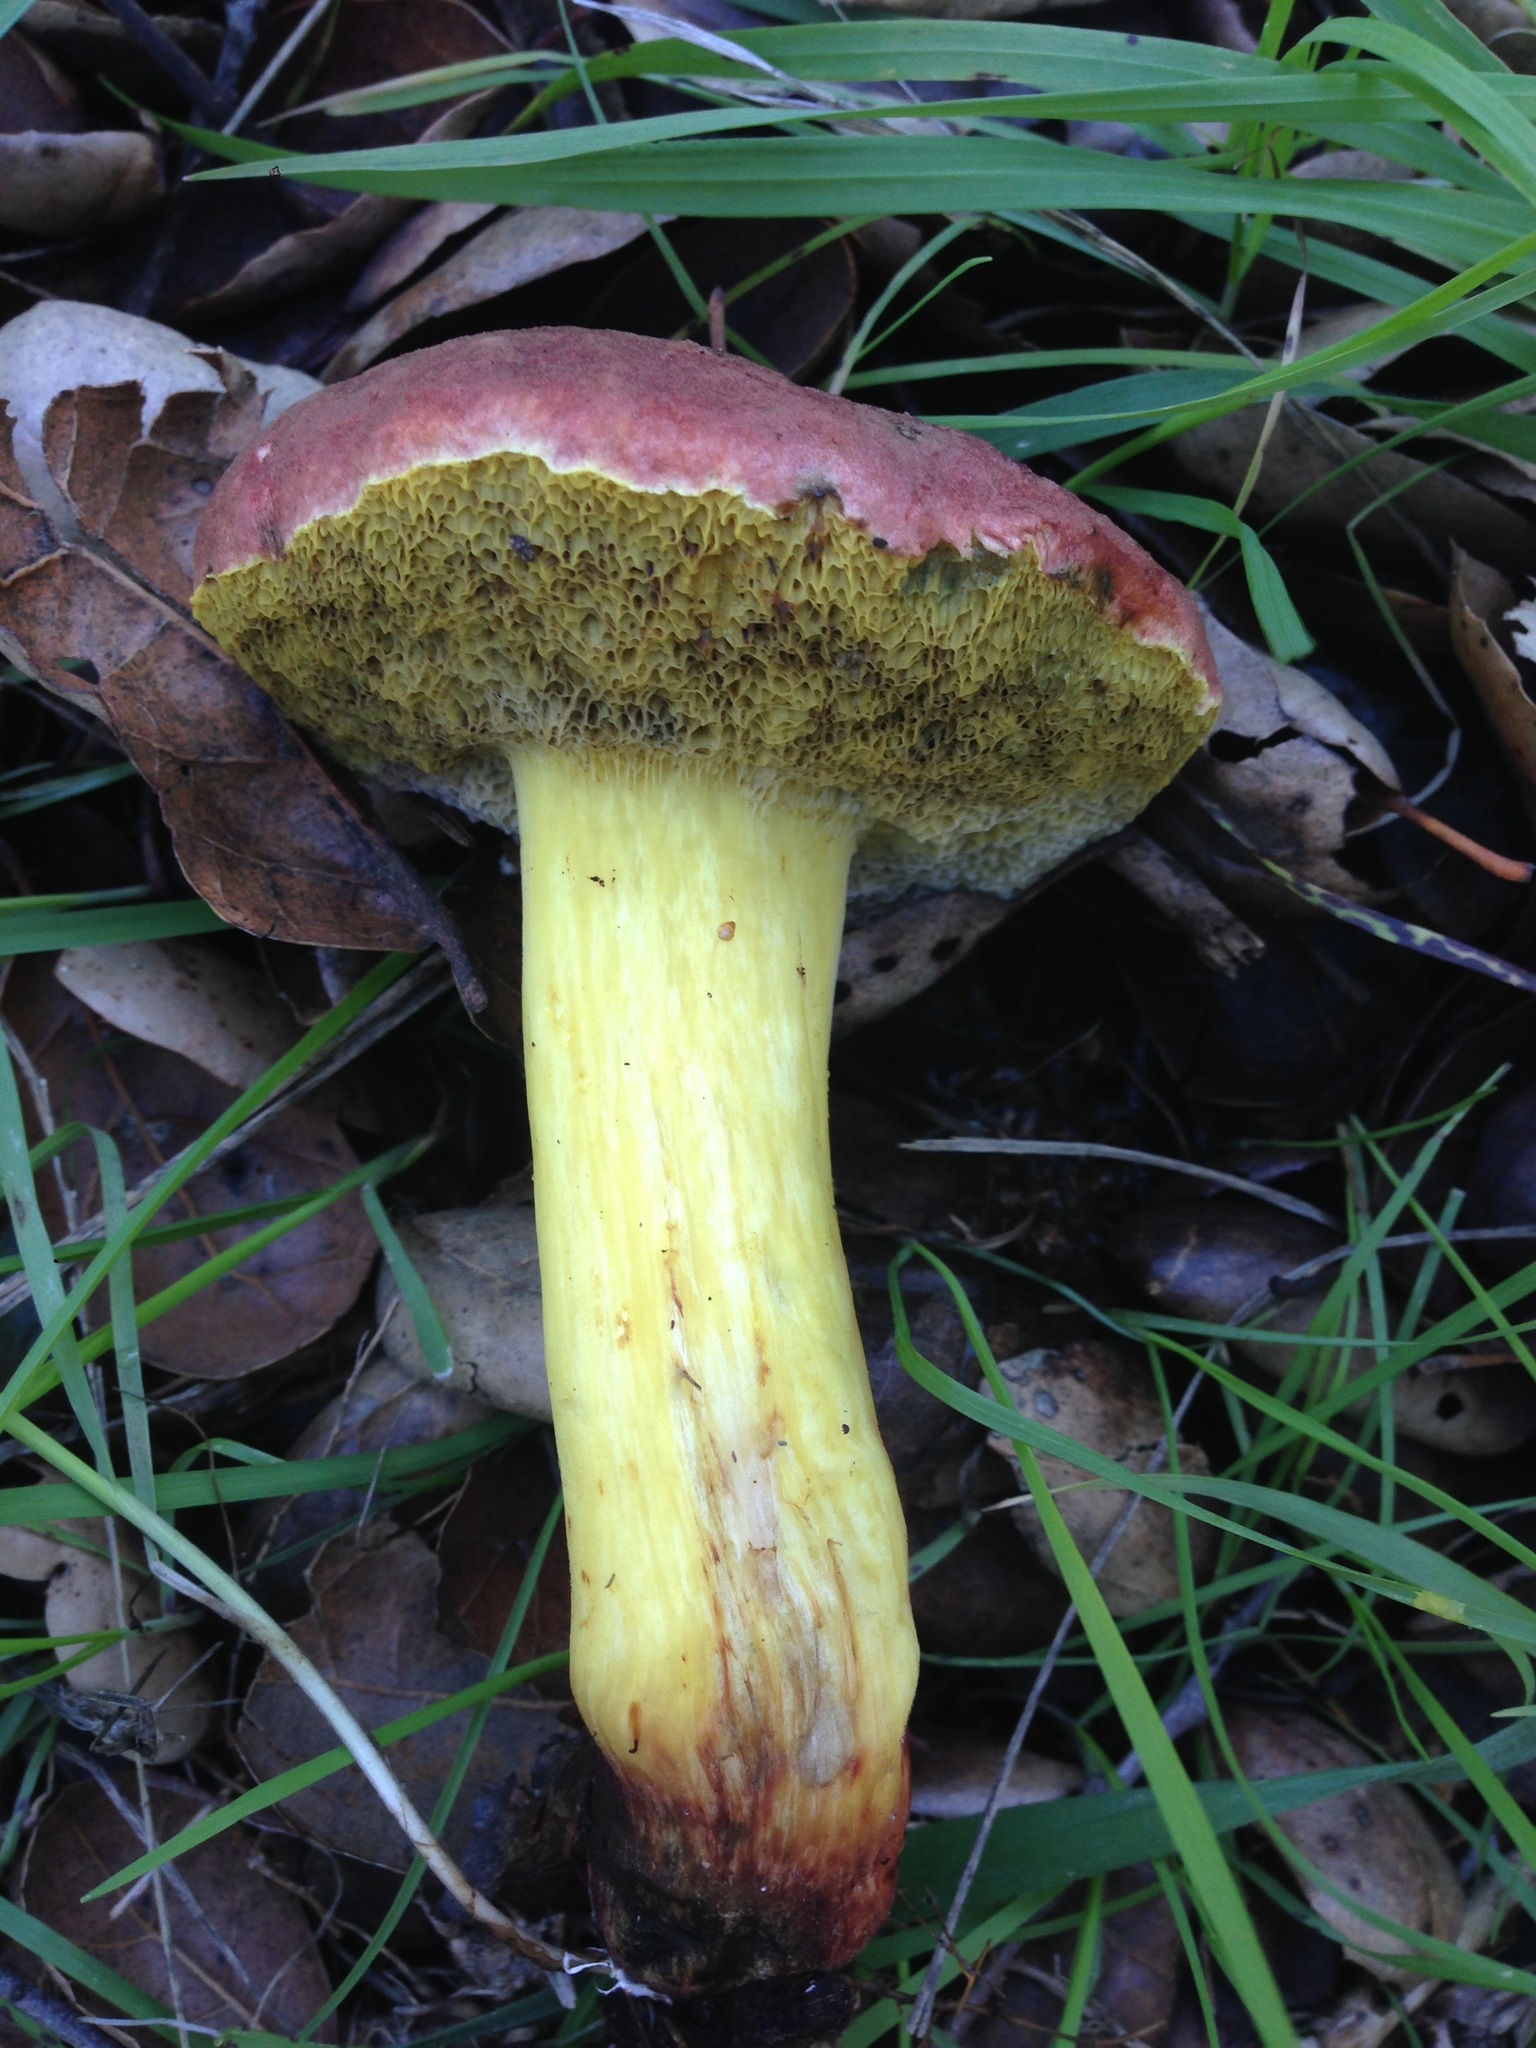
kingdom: Fungi
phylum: Basidiomycota
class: Agaricomycetes
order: Boletales
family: Boletaceae
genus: Xerocomellus
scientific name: Xerocomellus dryophilus
